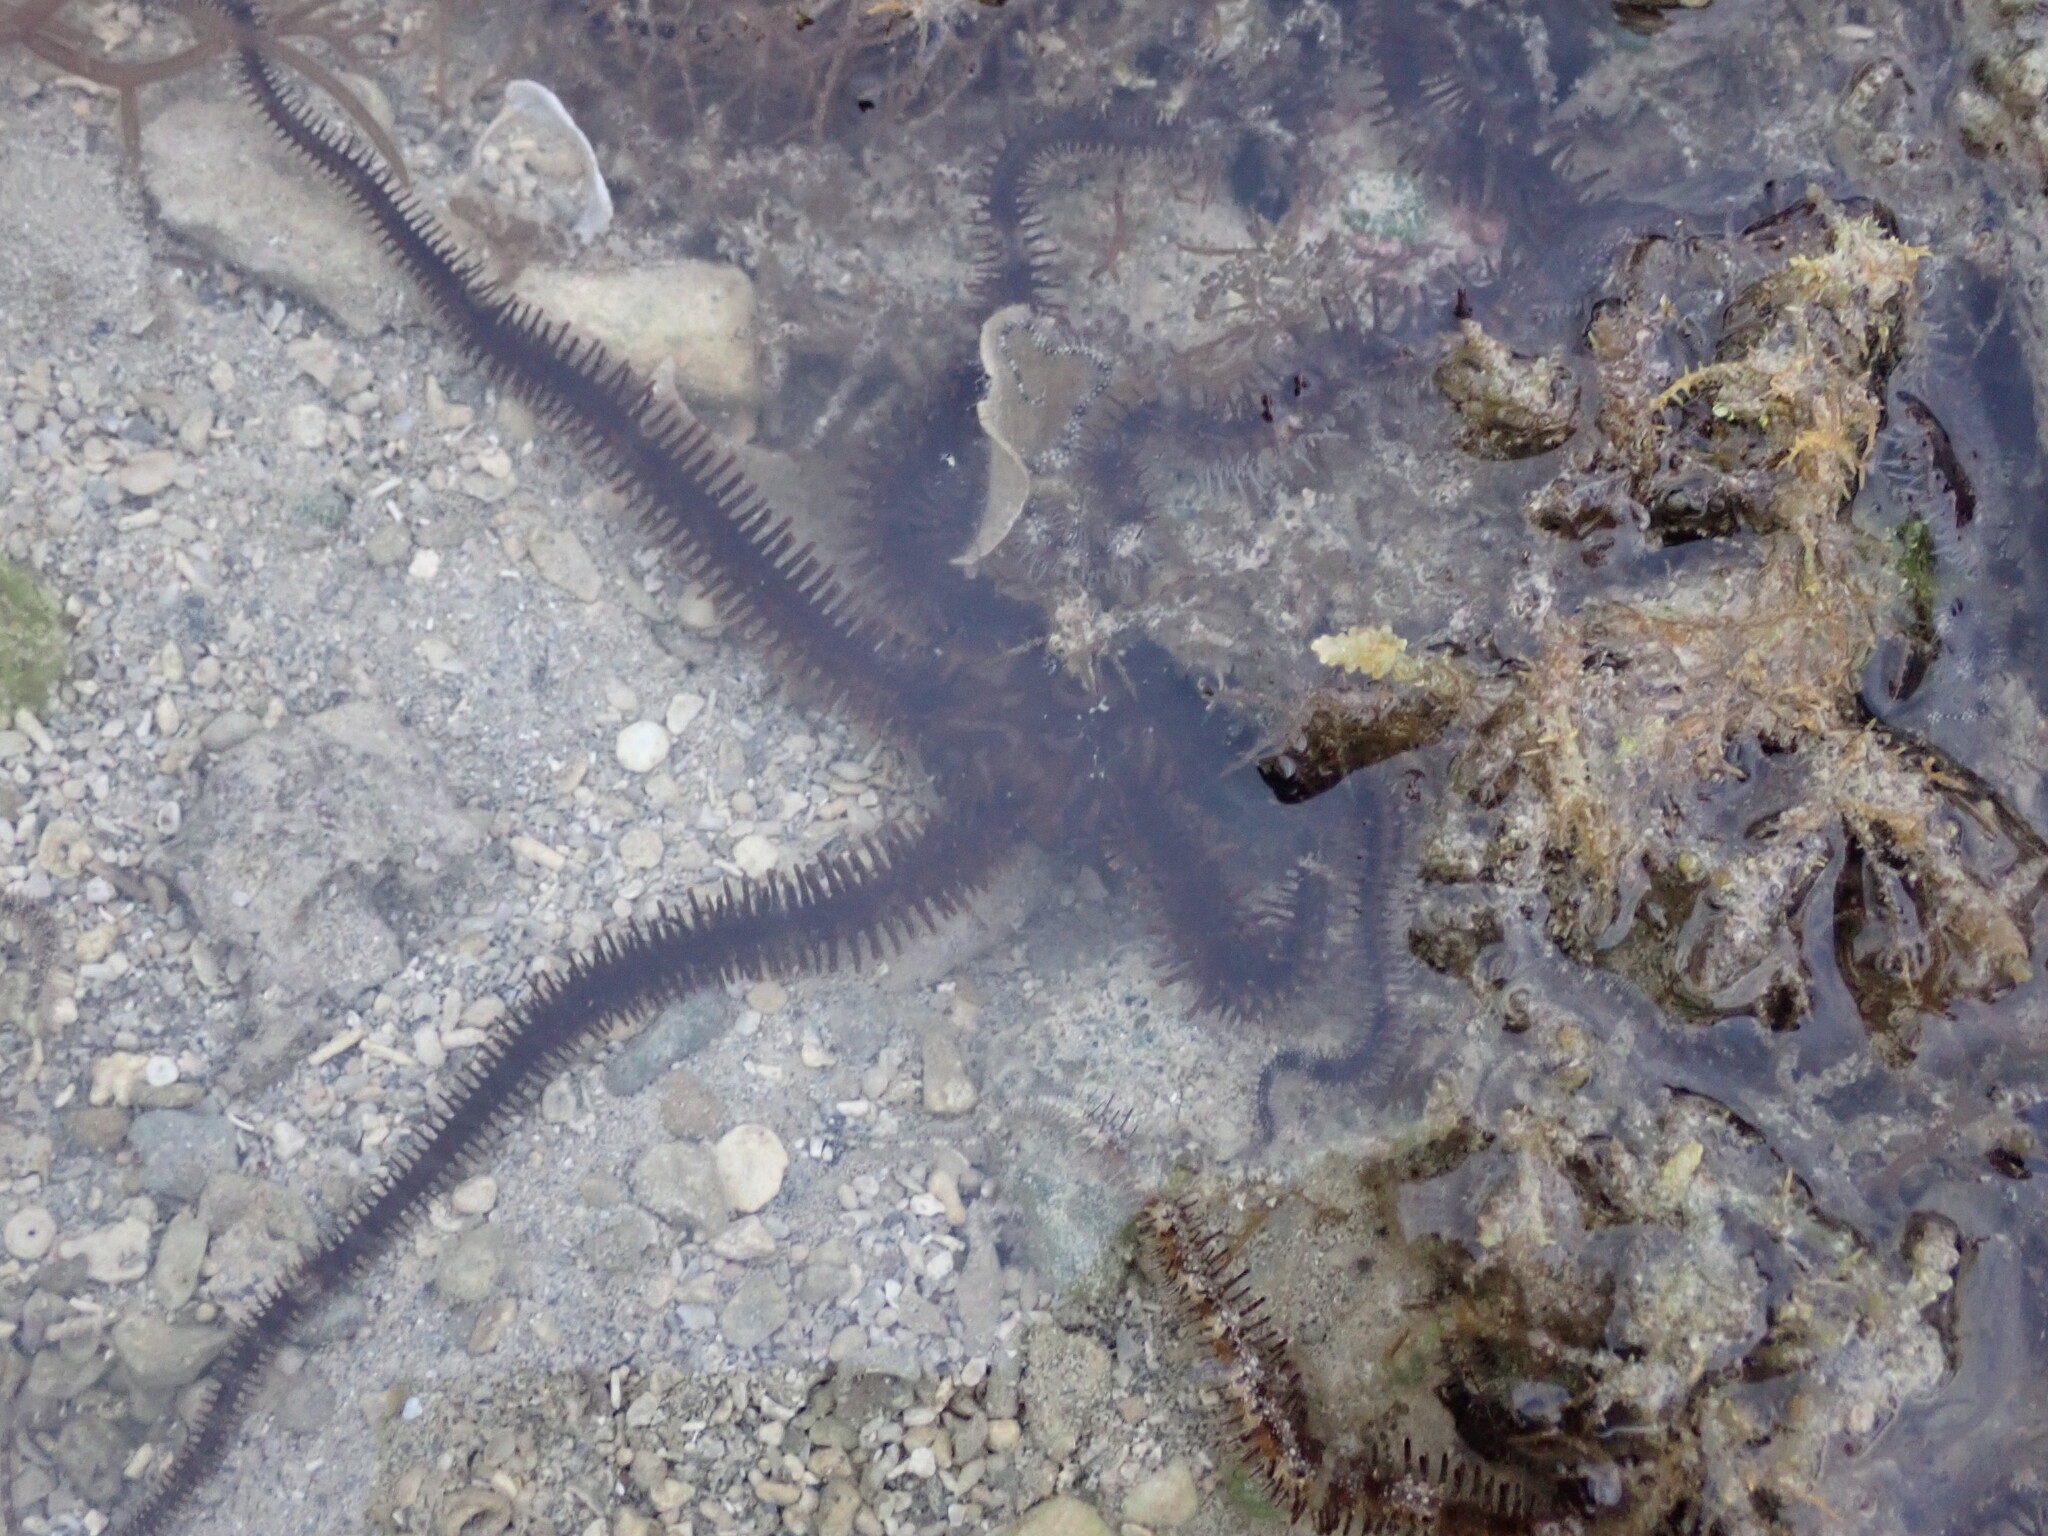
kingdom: Animalia
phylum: Echinodermata
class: Ophiuroidea
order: Ophiacanthida
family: Ophiocomidae
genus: Ophiocoma
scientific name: Ophiocoma scolopendrina
